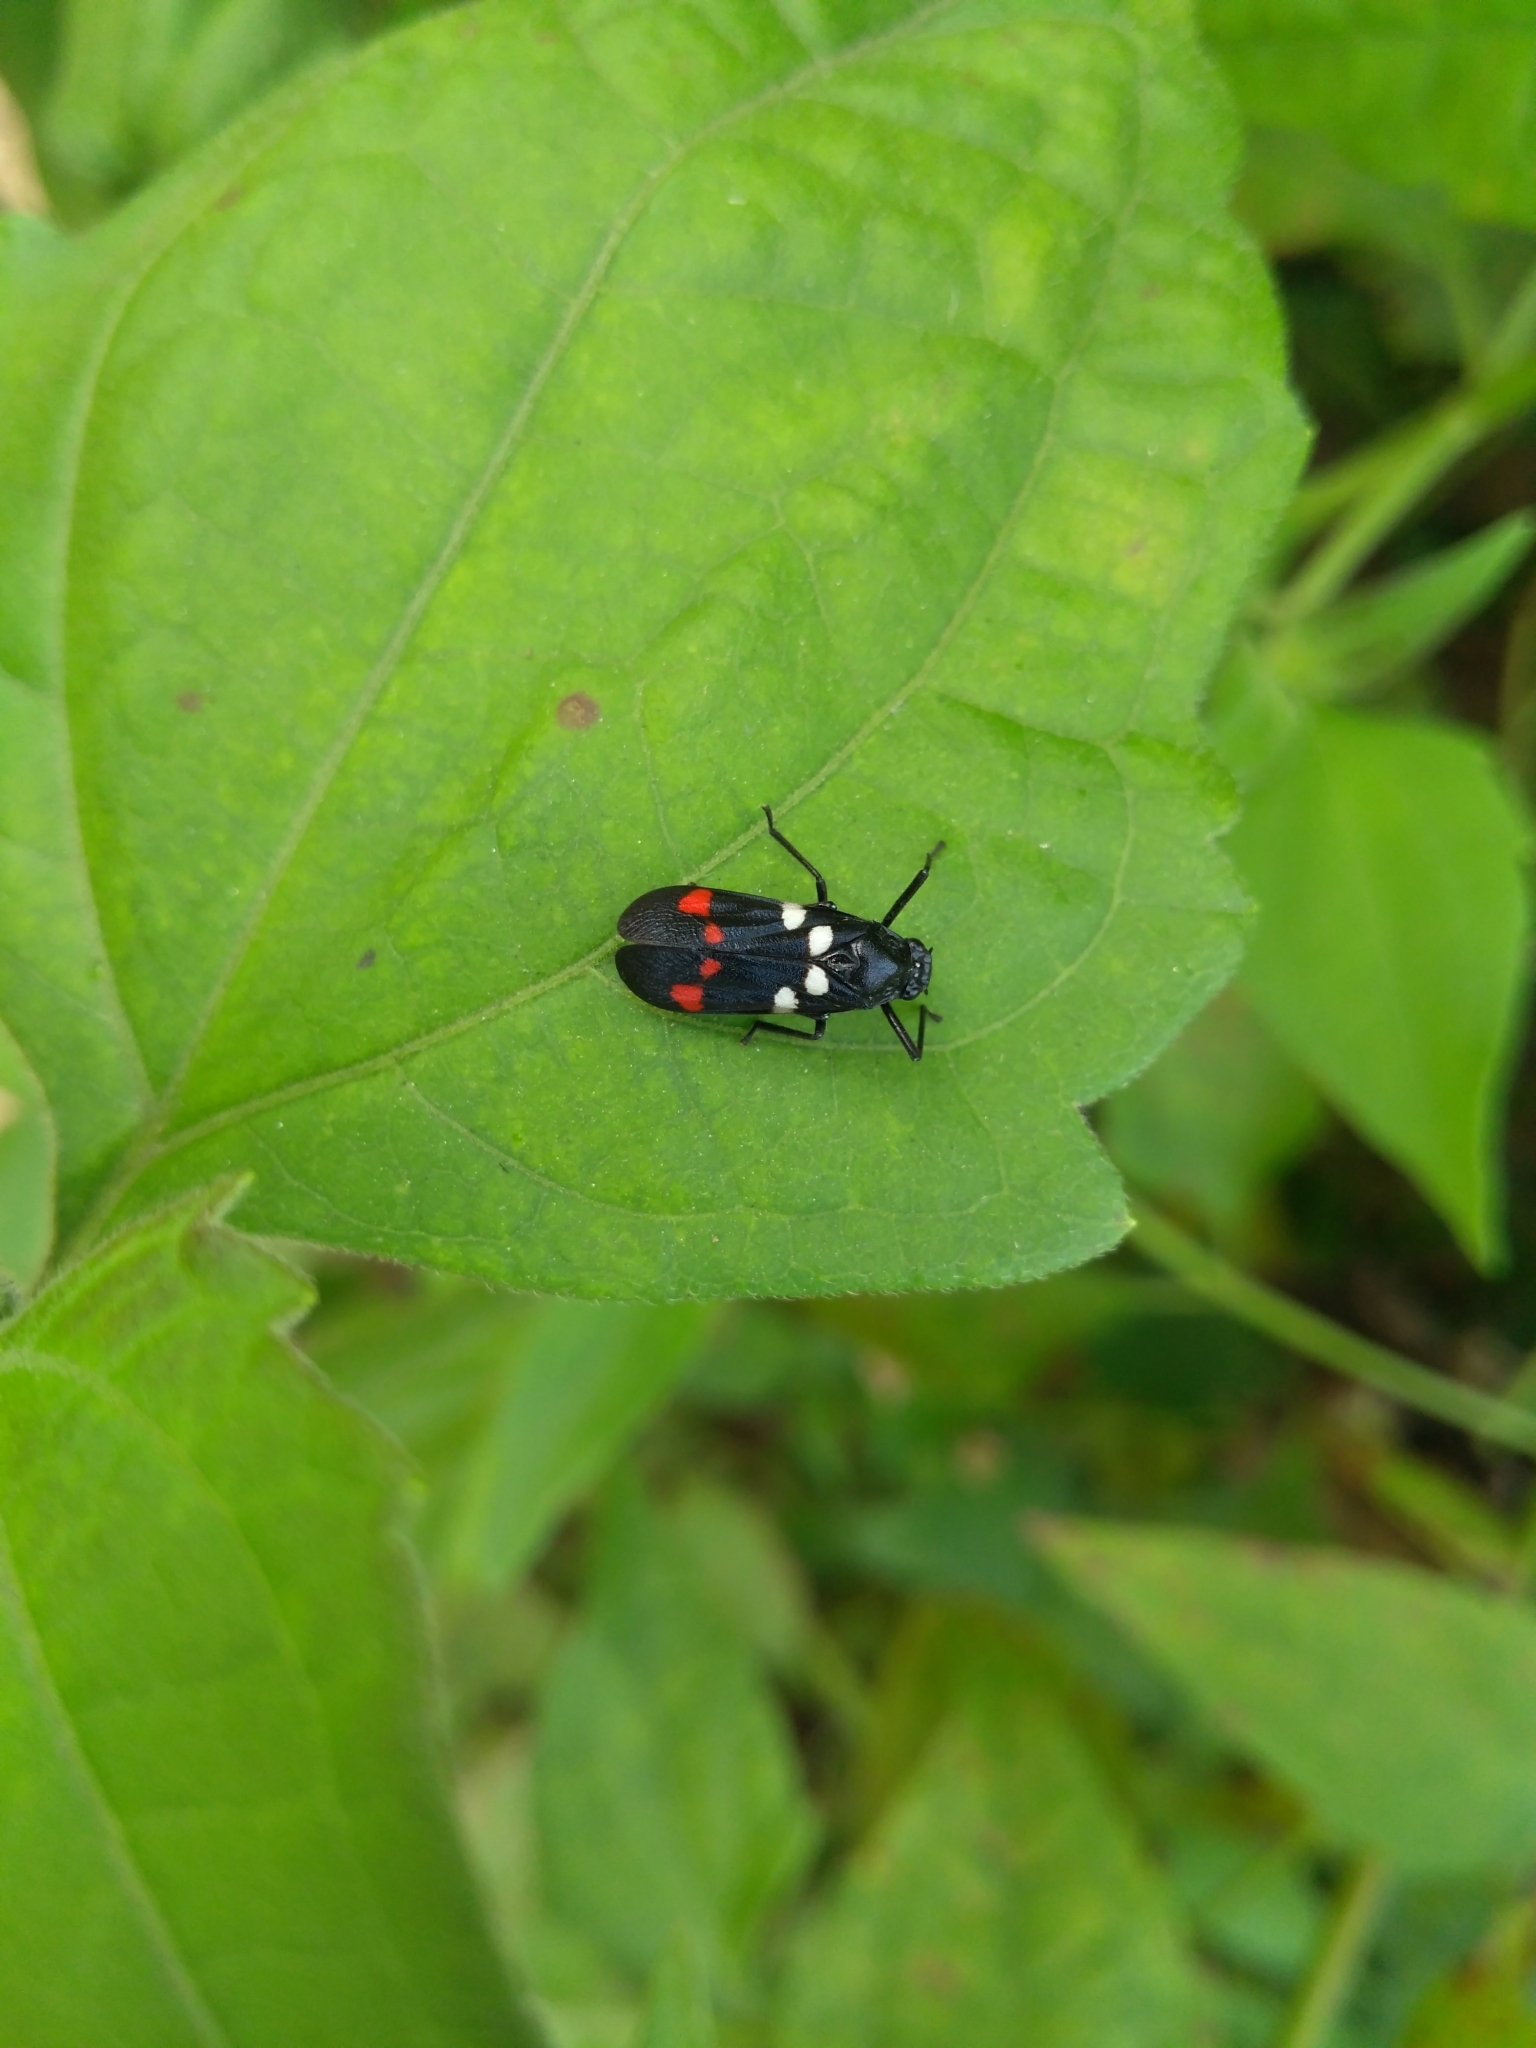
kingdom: Animalia
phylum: Arthropoda
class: Insecta
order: Hemiptera
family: Cercopidae
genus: Callitettix
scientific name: Callitettix versicolor
